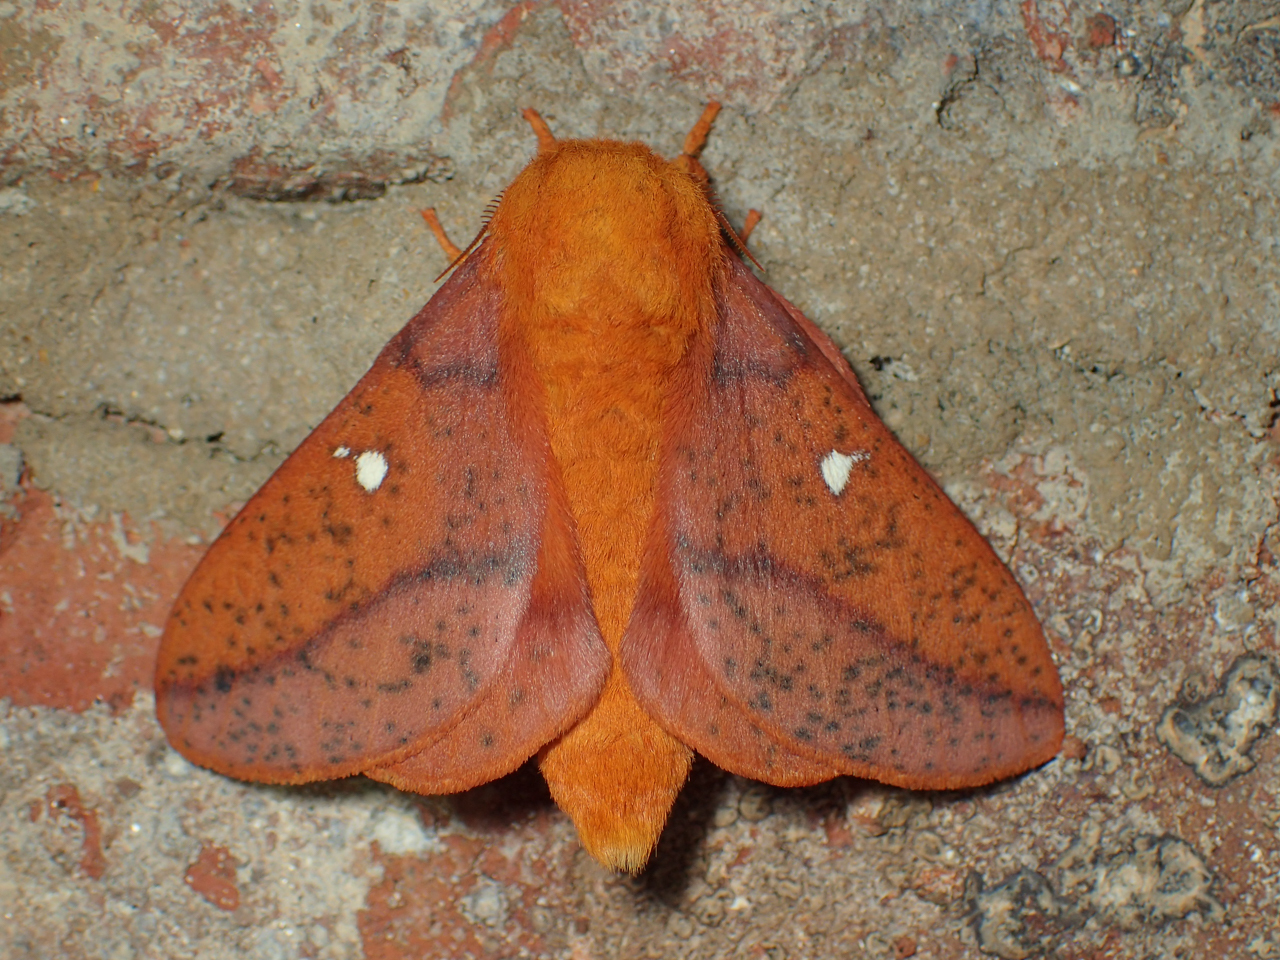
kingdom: Animalia
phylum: Arthropoda
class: Insecta
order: Lepidoptera
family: Saturniidae
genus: Anisota
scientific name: Anisota stigma
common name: Spiny oakworm moth
